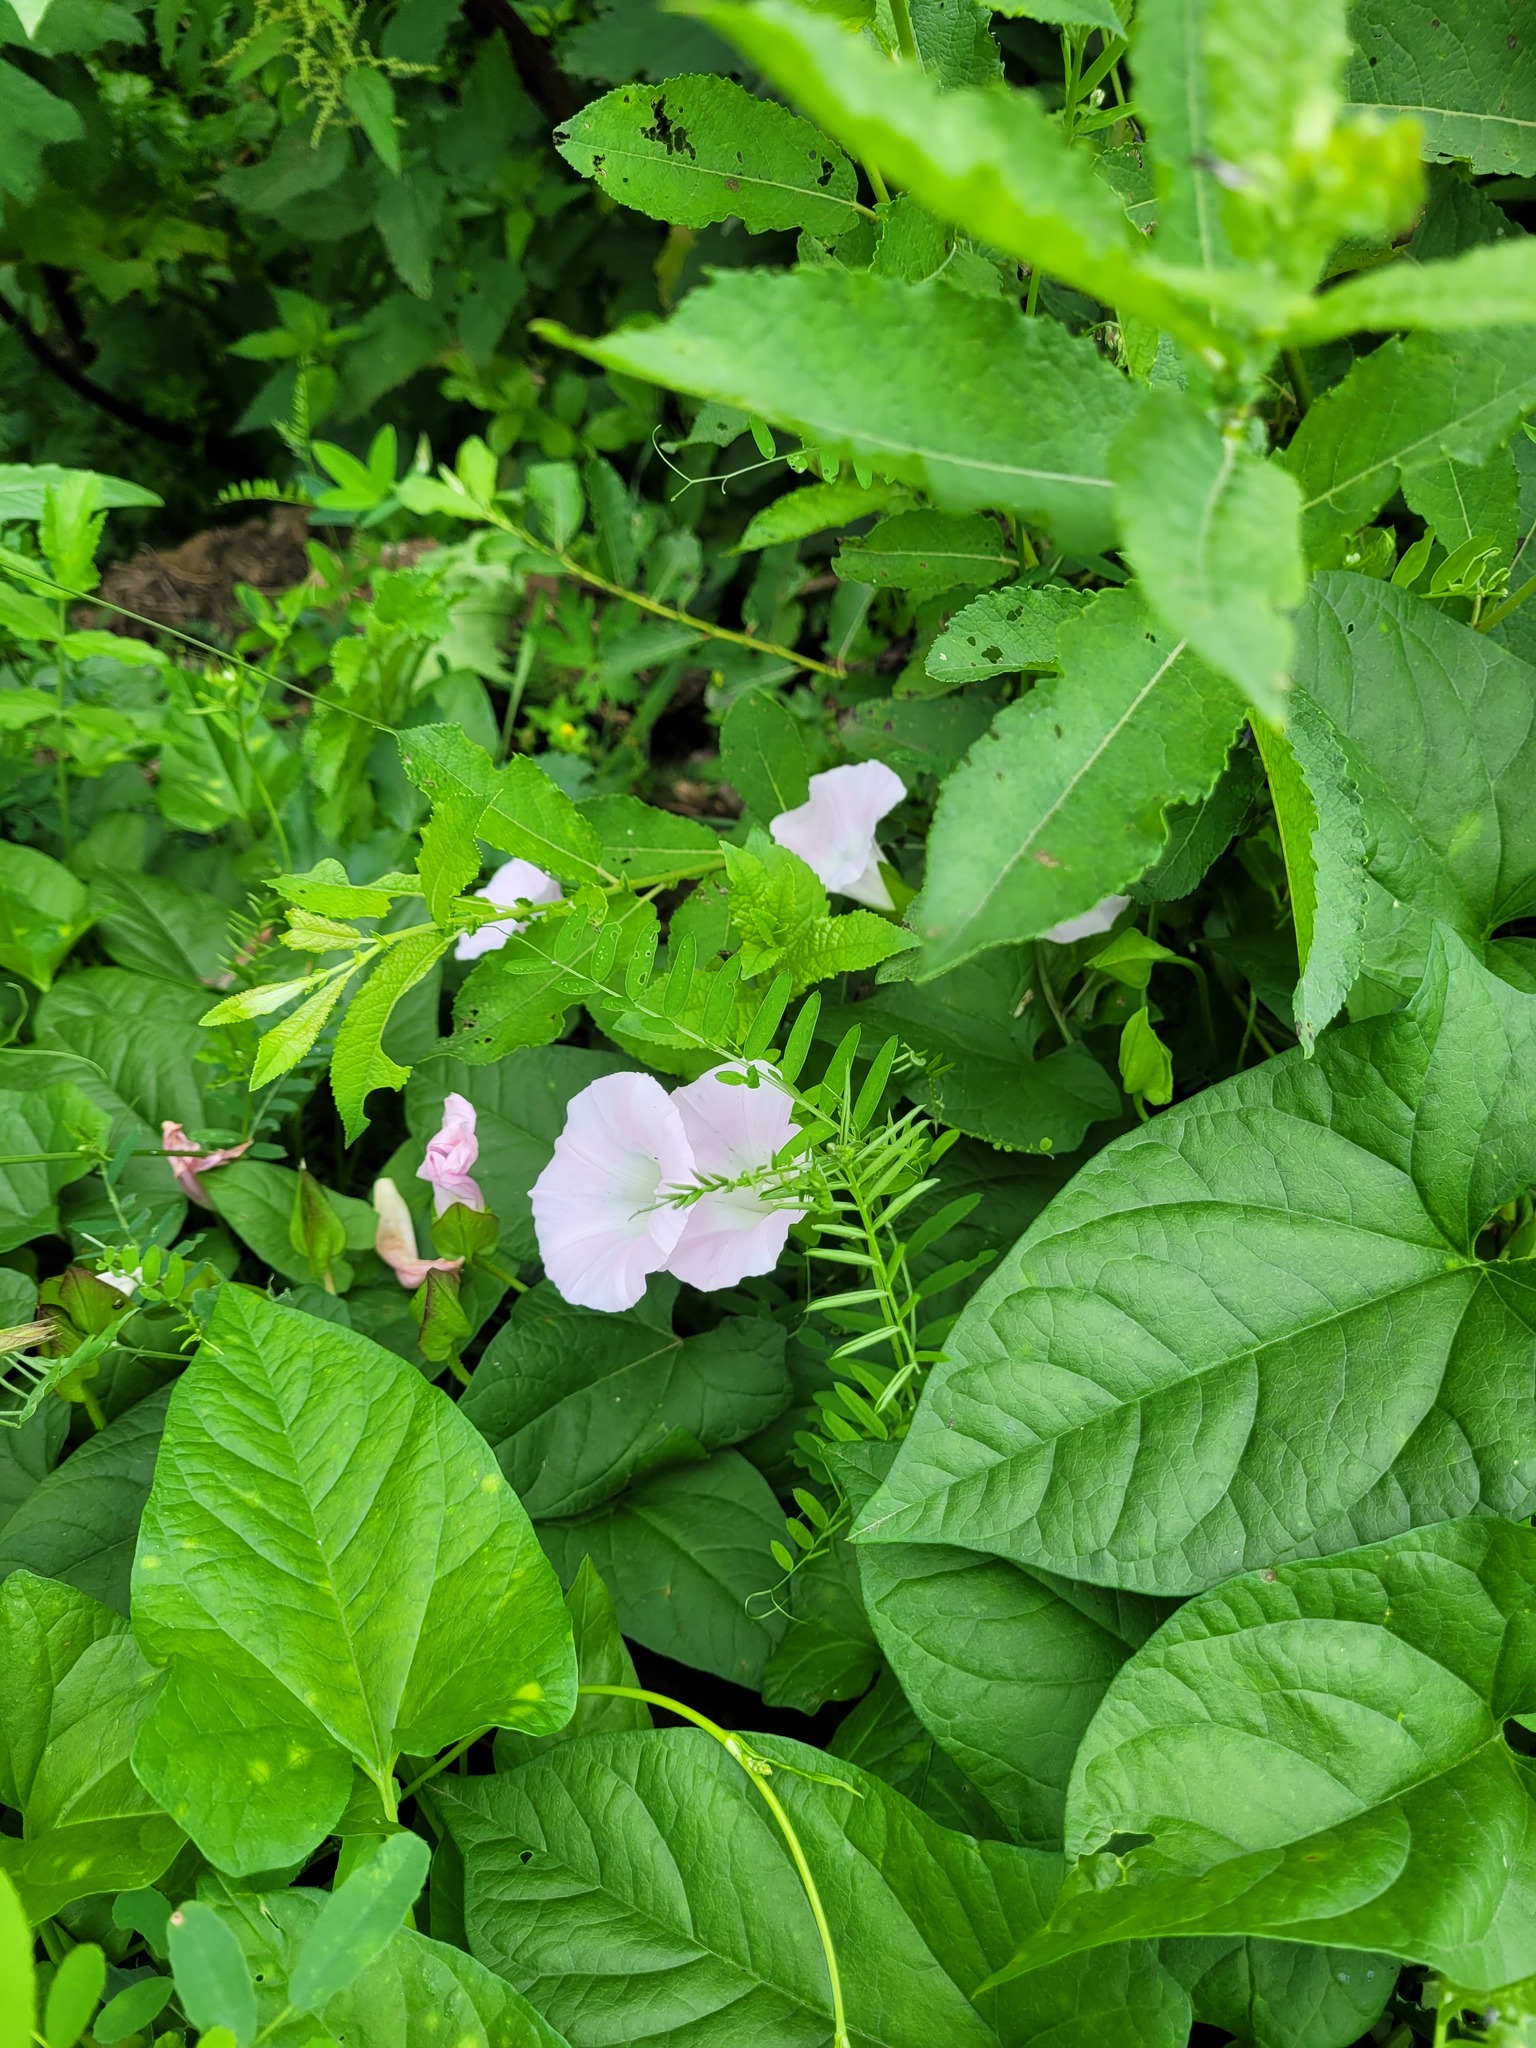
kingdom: Plantae
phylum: Tracheophyta
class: Magnoliopsida
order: Solanales
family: Convolvulaceae
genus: Calystegia
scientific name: Calystegia sepium
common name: Hedge bindweed
